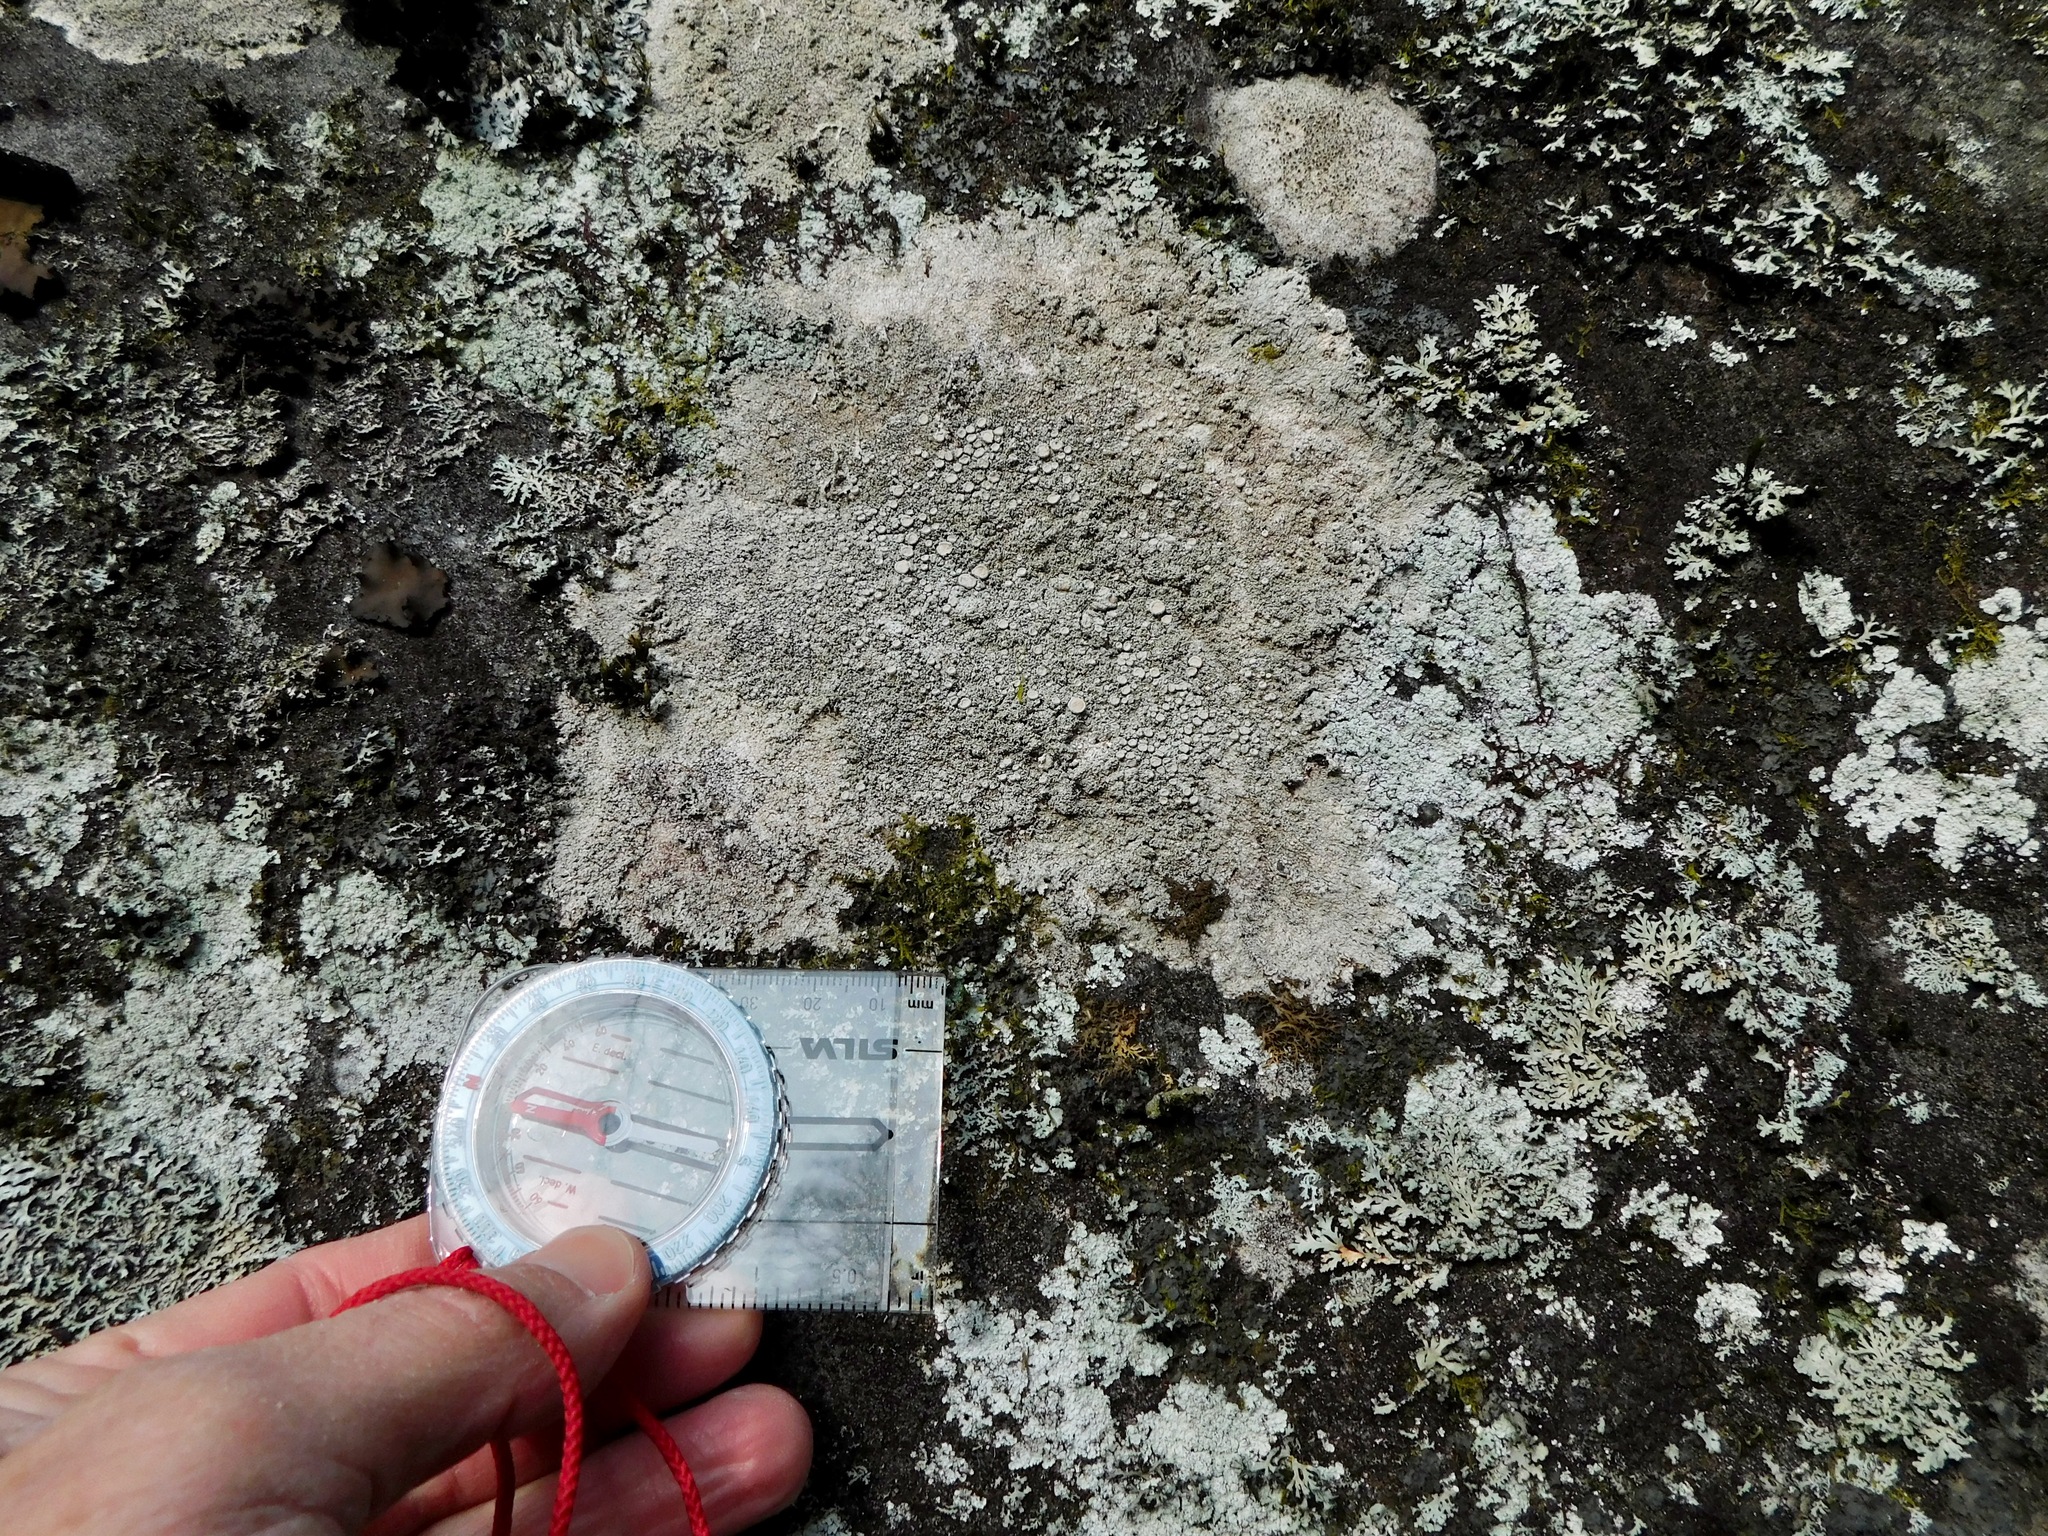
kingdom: Fungi
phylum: Ascomycota
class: Lecanoromycetes
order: Pertusariales
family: Ochrolechiaceae
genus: Ochrolechia
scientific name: Ochrolechia yasudae
